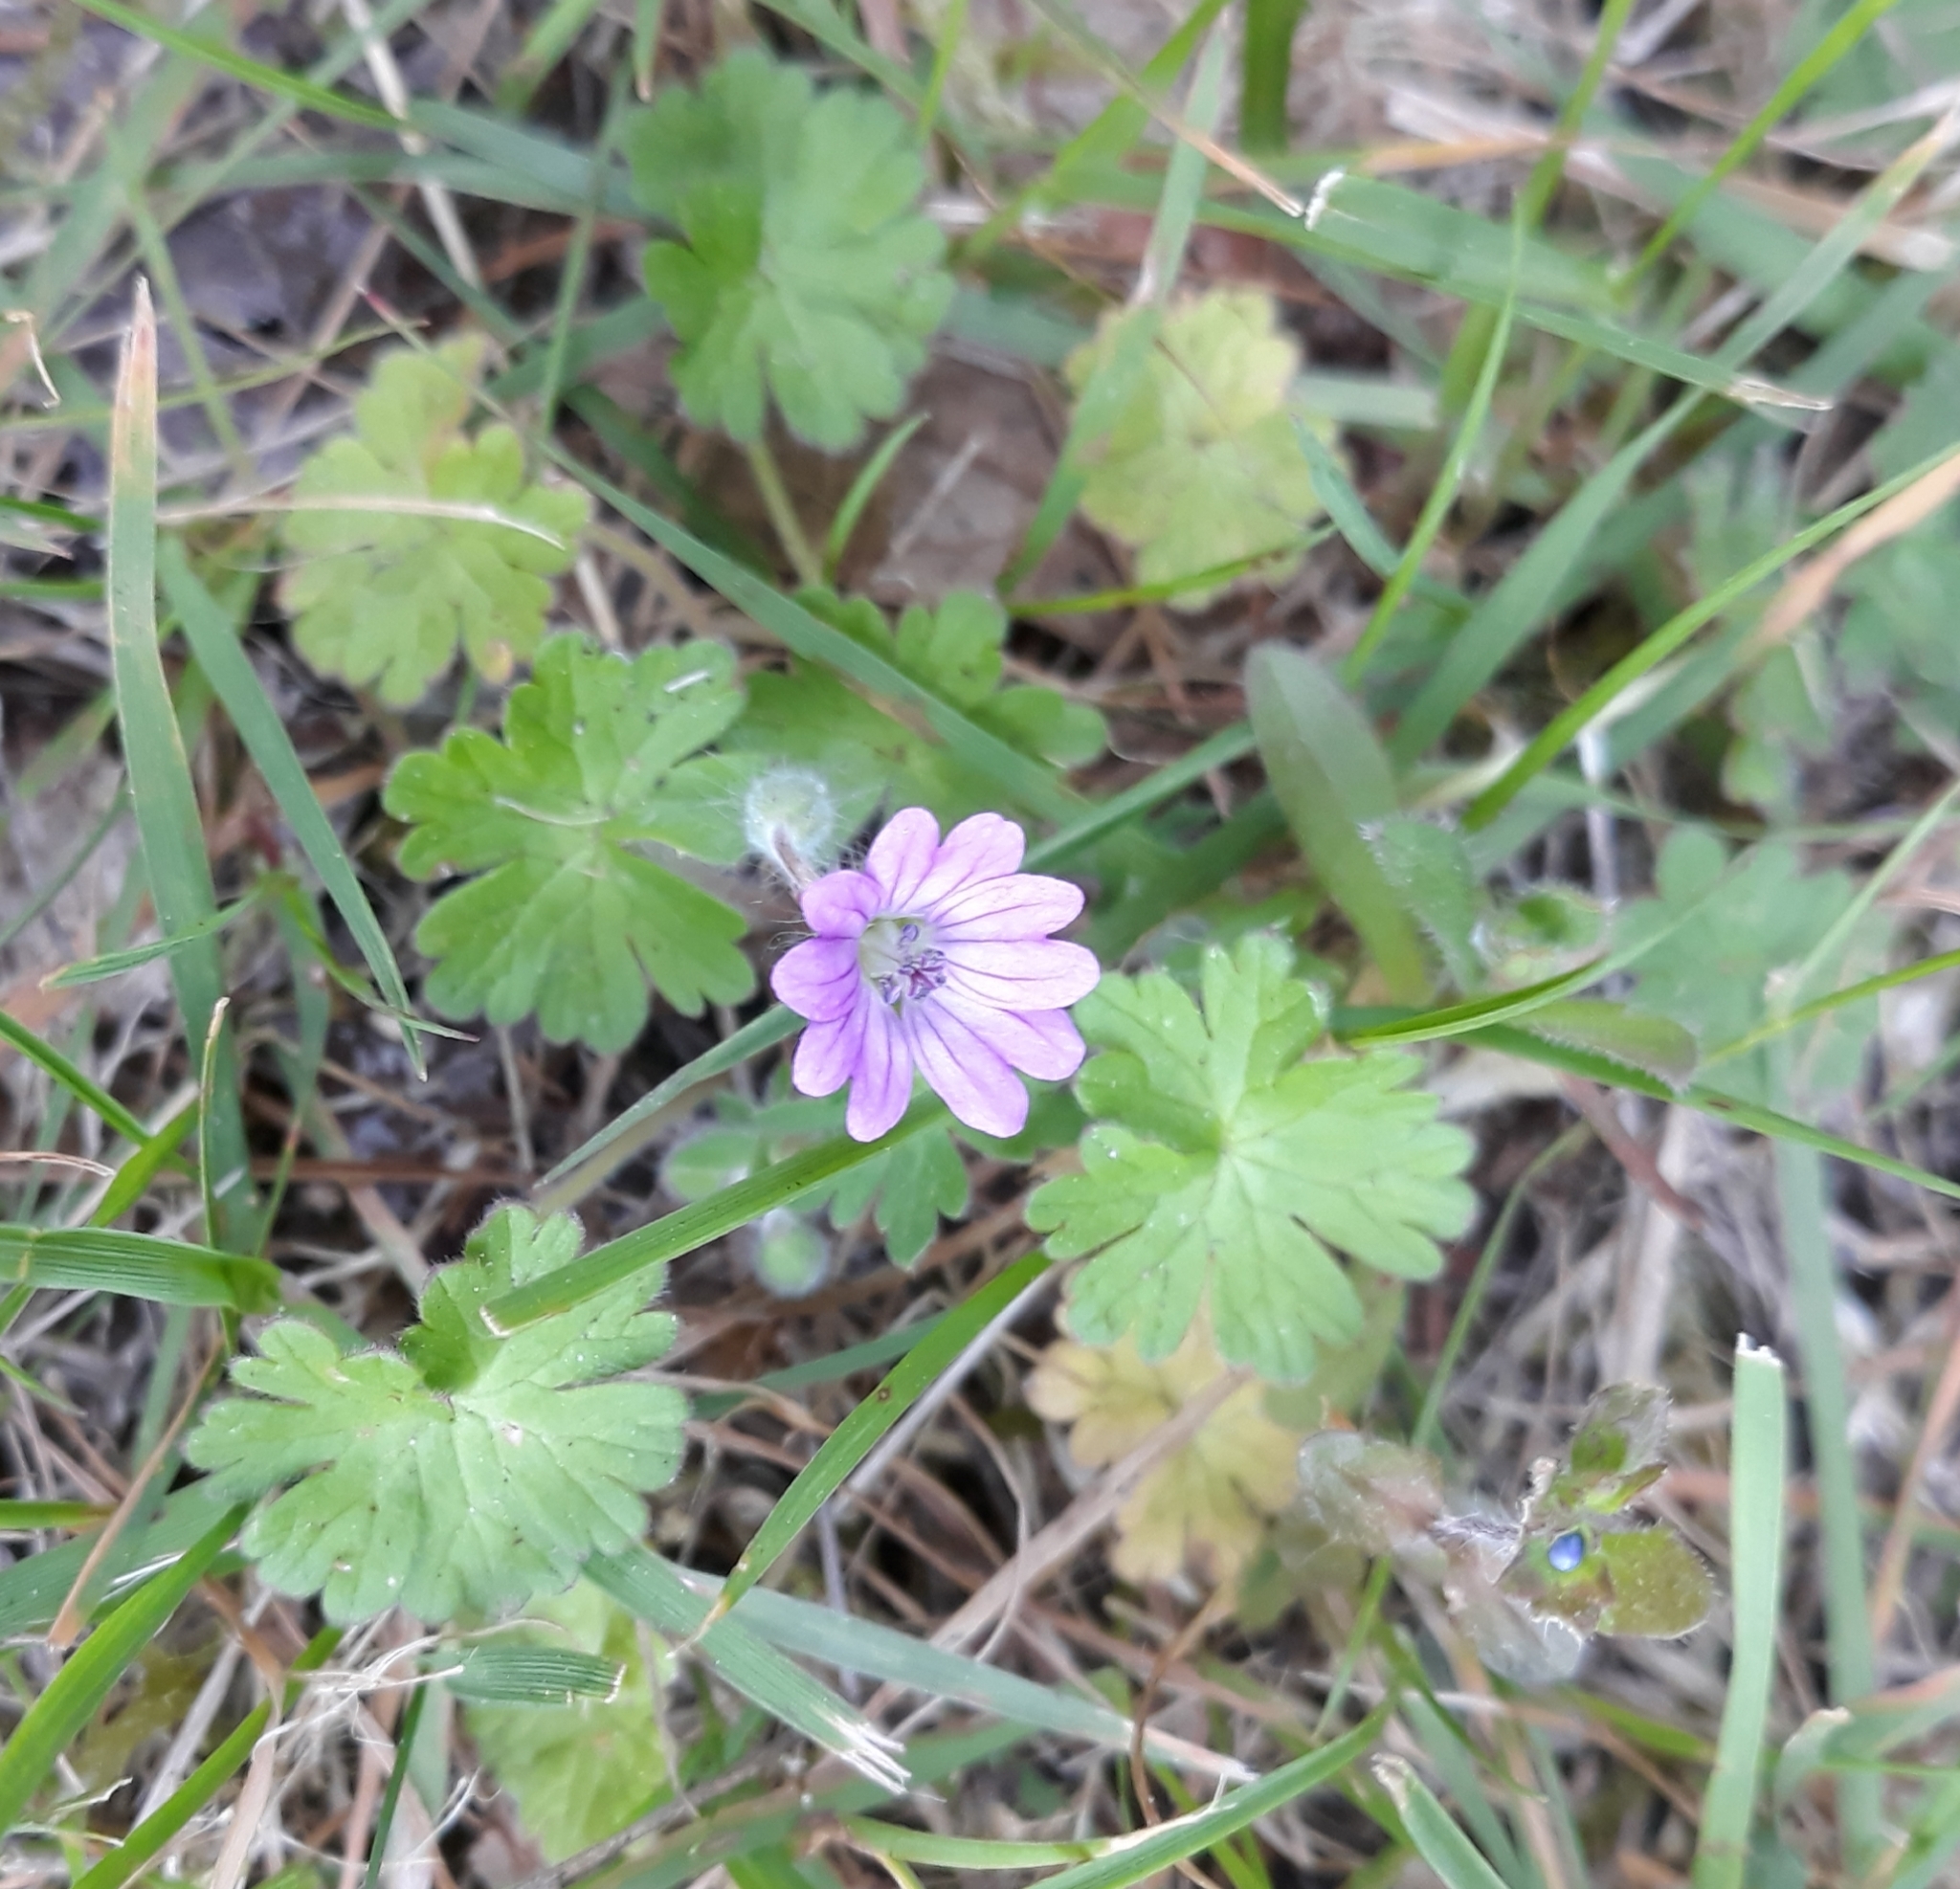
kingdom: Plantae
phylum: Tracheophyta
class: Magnoliopsida
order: Geraniales
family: Geraniaceae
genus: Geranium
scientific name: Geranium molle
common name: Dove's-foot crane's-bill
